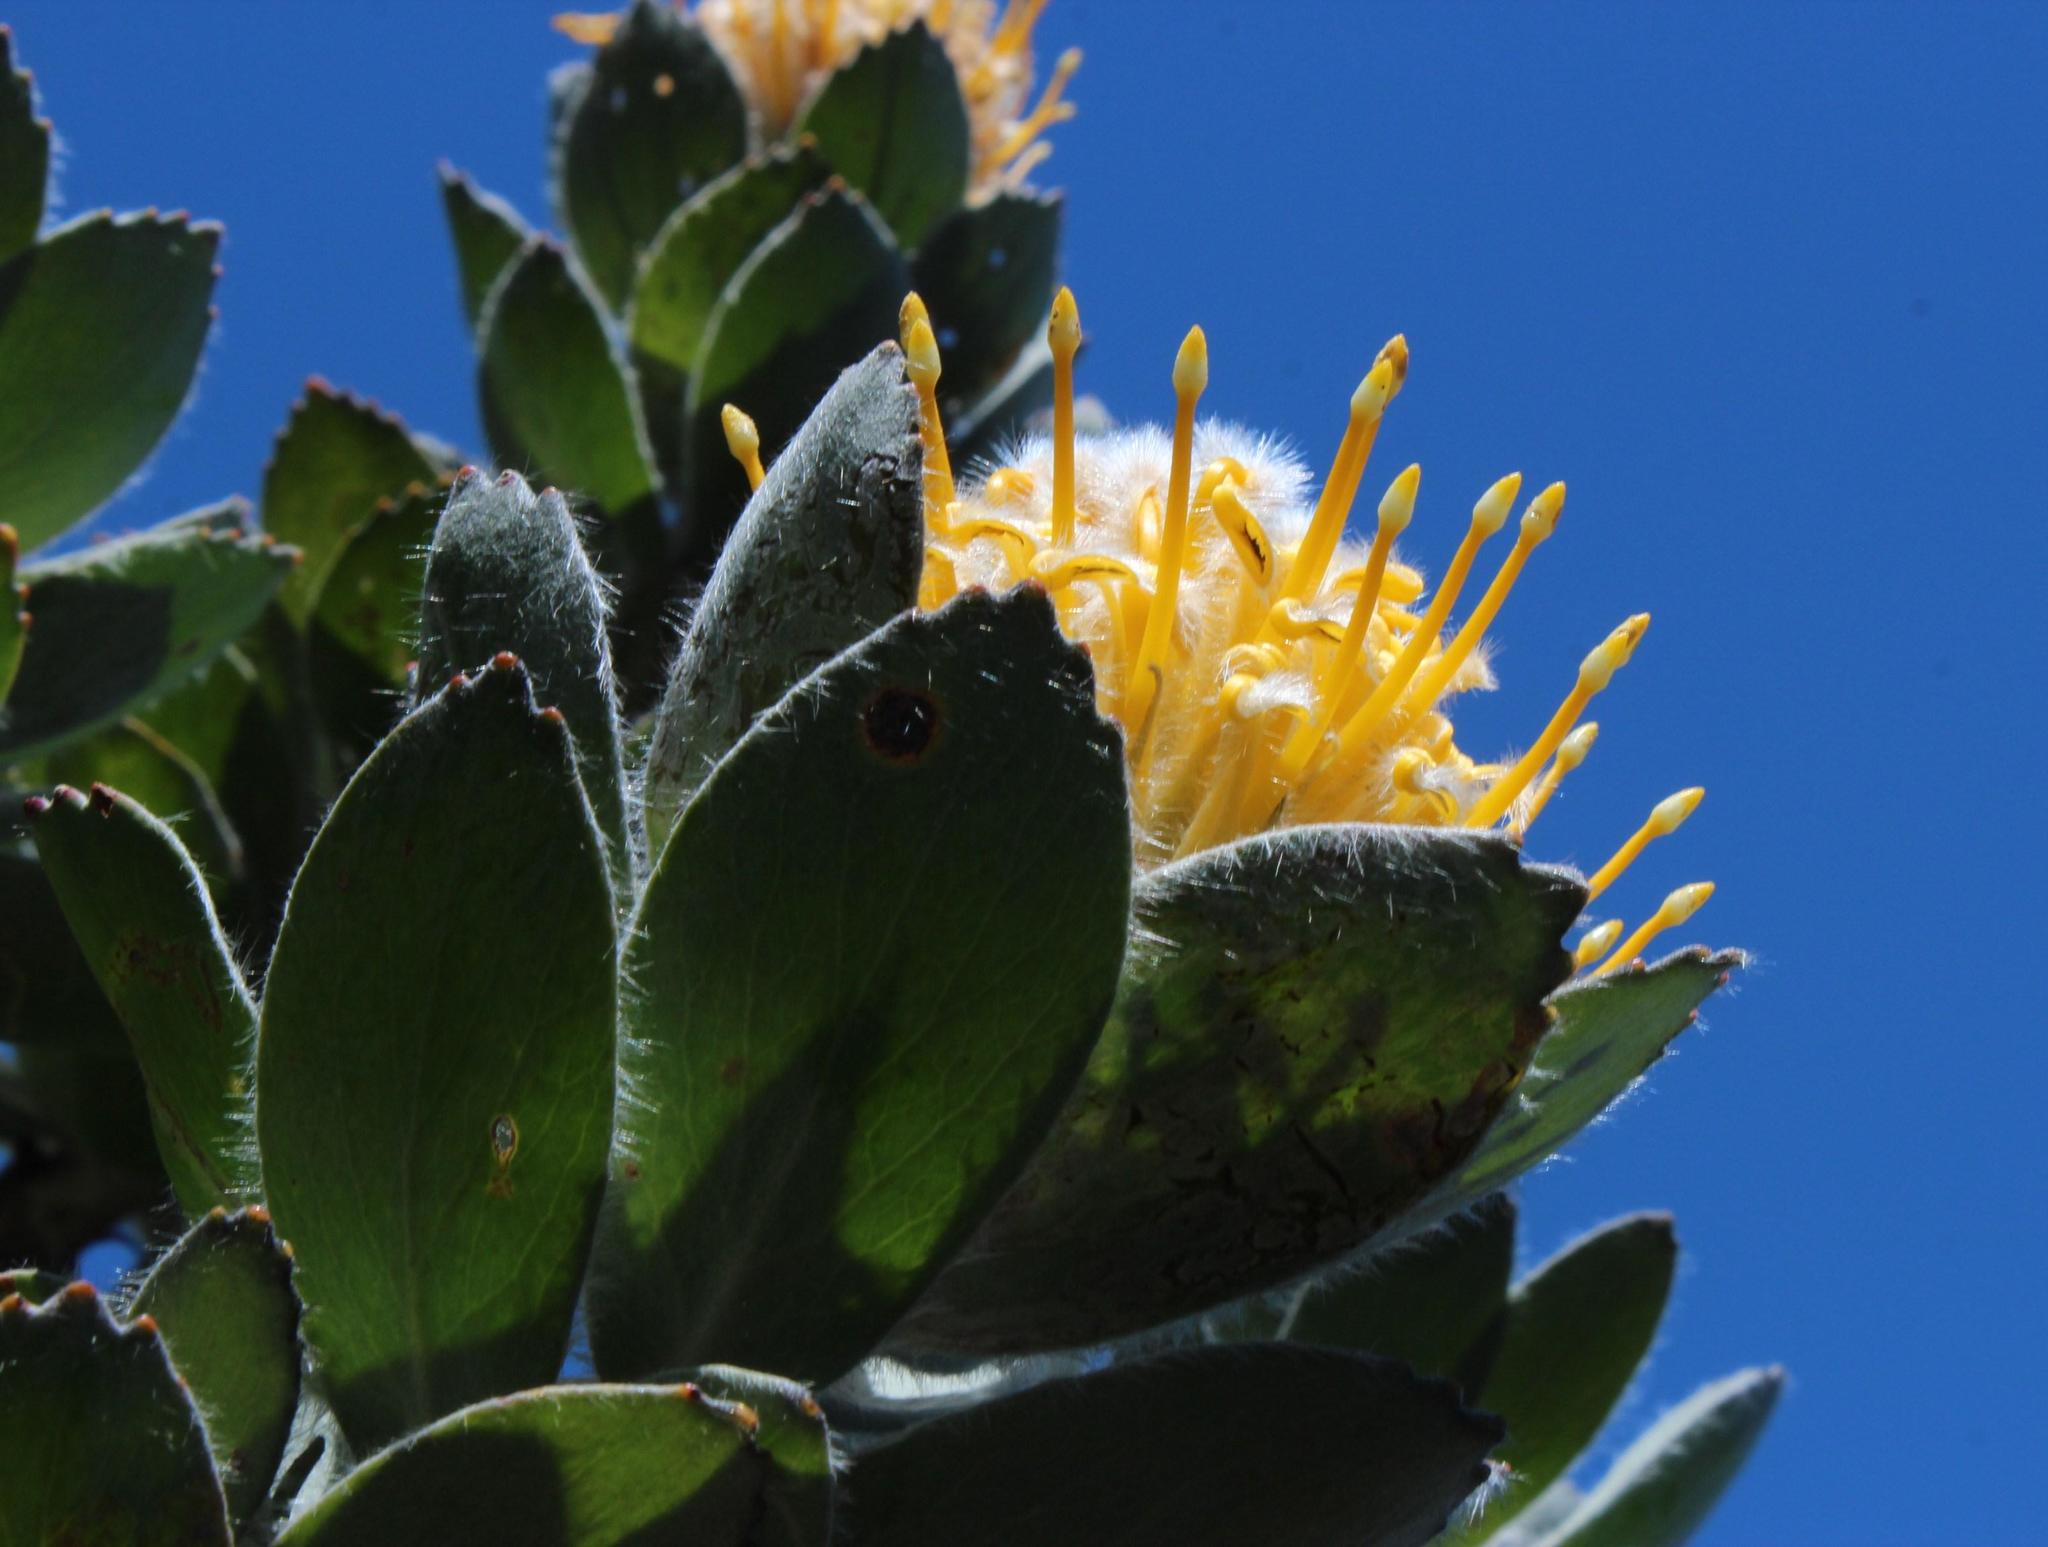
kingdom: Plantae
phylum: Tracheophyta
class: Magnoliopsida
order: Proteales
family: Proteaceae
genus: Leucospermum
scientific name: Leucospermum conocarpodendron
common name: Tree pincushion
